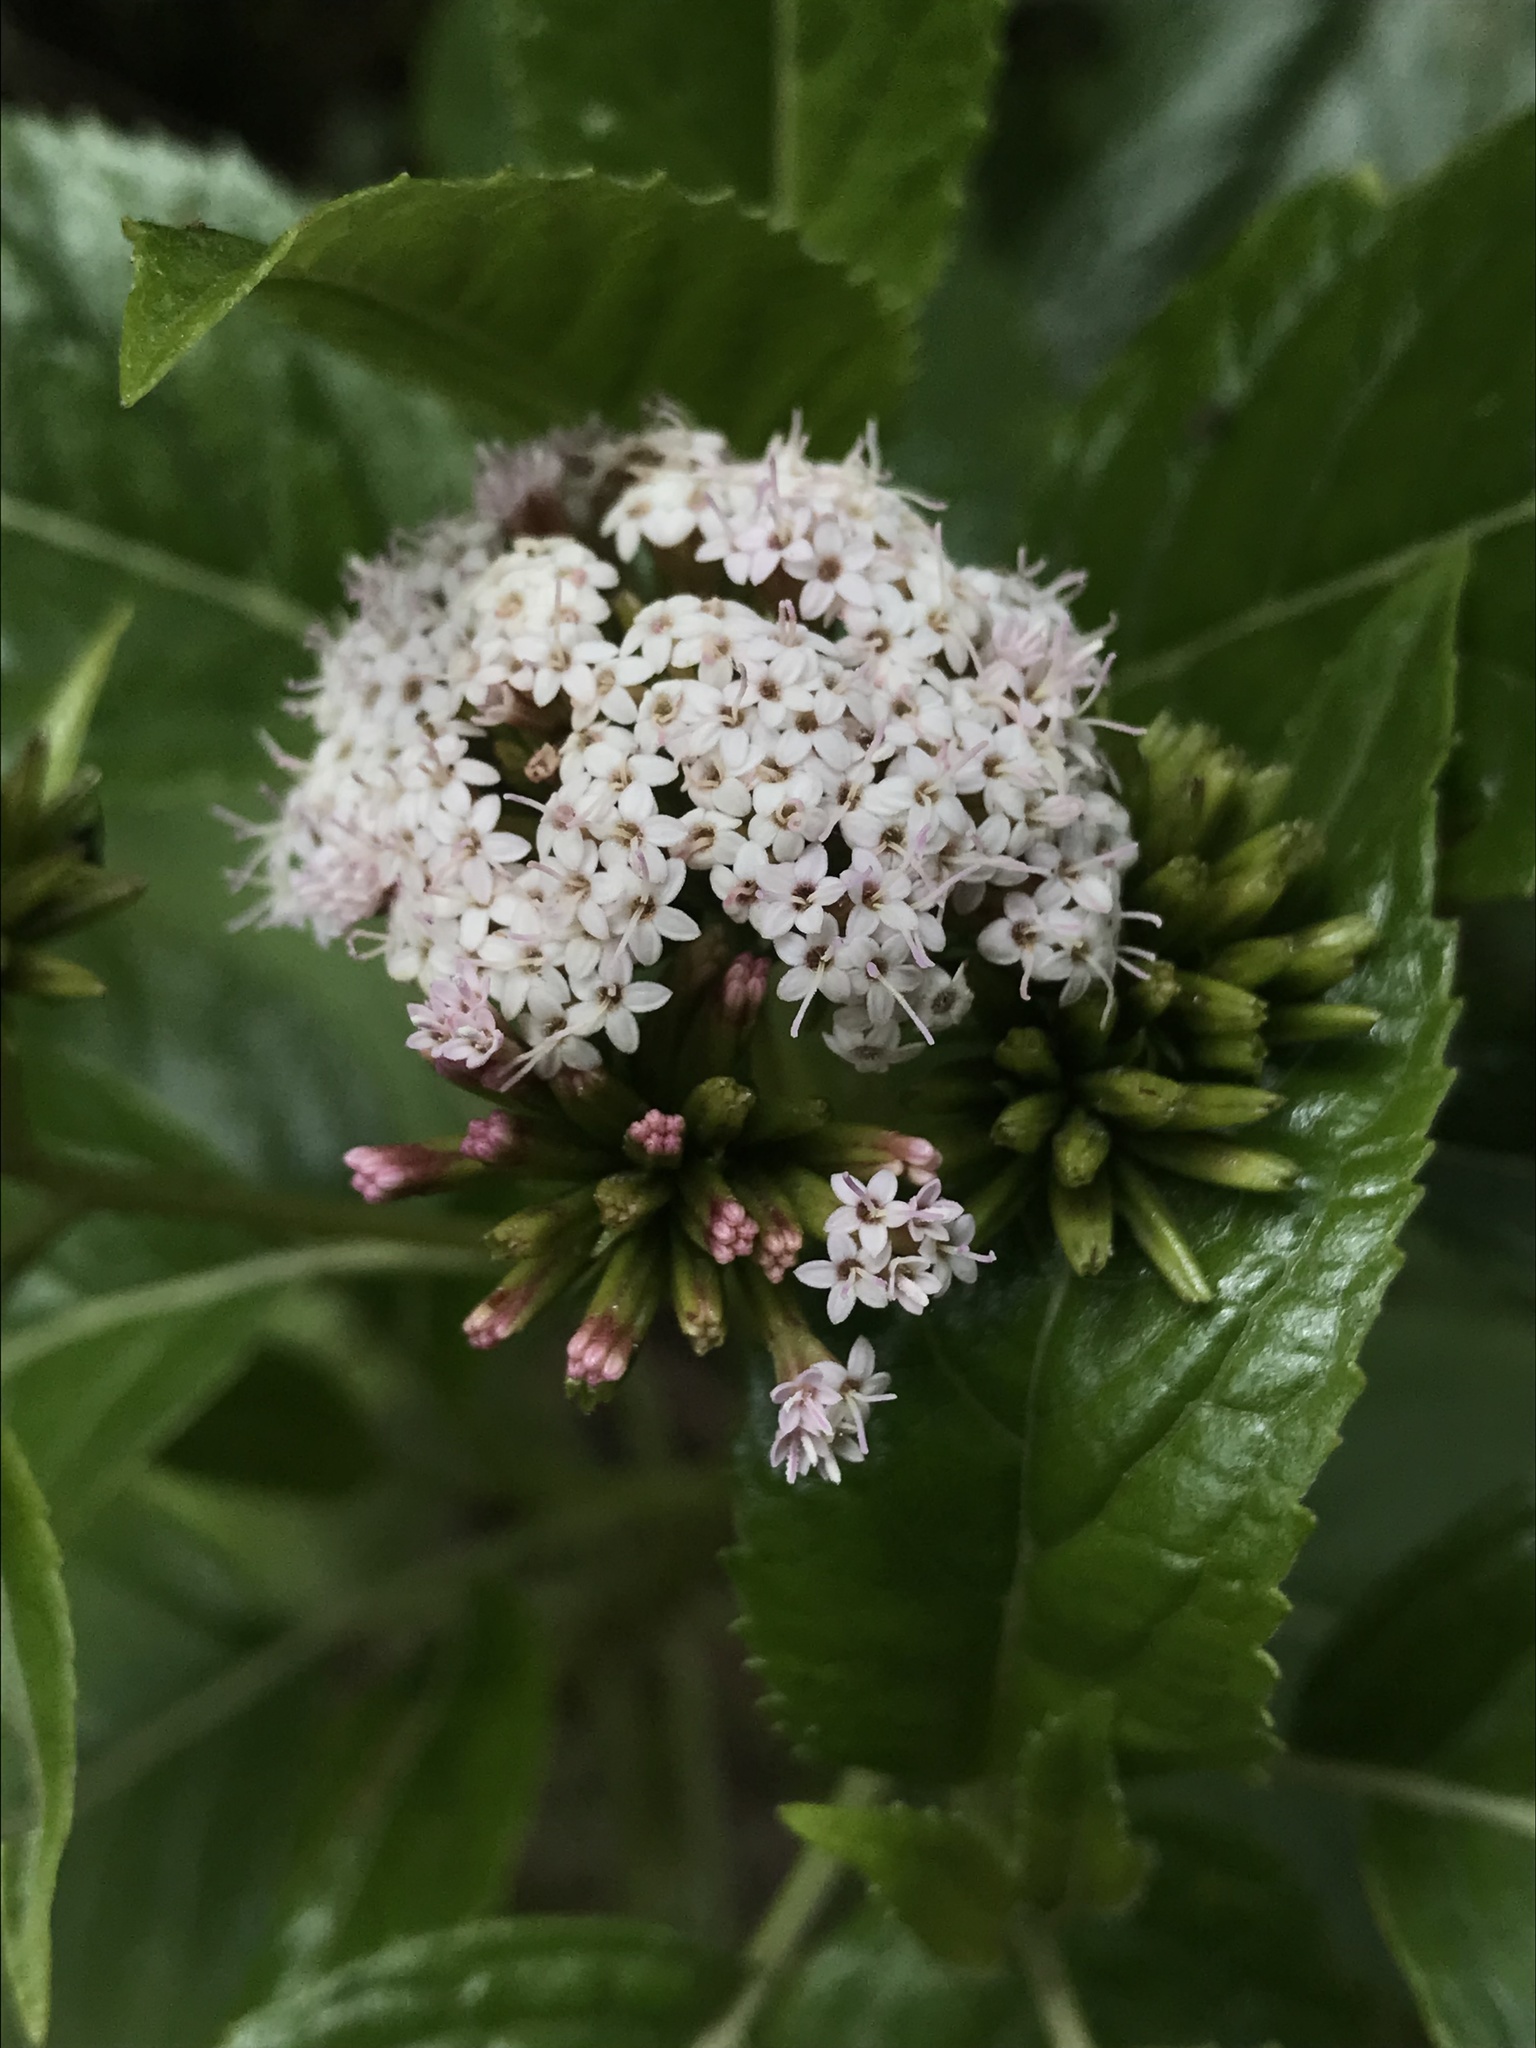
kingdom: Plantae
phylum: Tracheophyta
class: Magnoliopsida
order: Asterales
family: Asteraceae
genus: Stevia
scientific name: Stevia lucida
